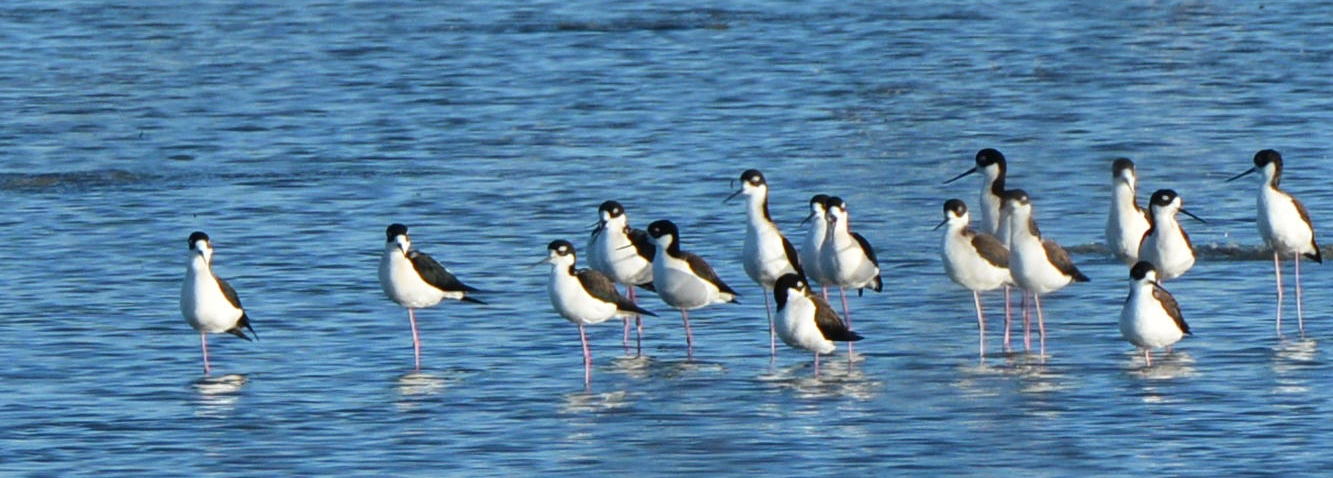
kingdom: Animalia
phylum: Chordata
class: Aves
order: Charadriiformes
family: Recurvirostridae
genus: Himantopus
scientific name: Himantopus mexicanus
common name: Black-necked stilt
